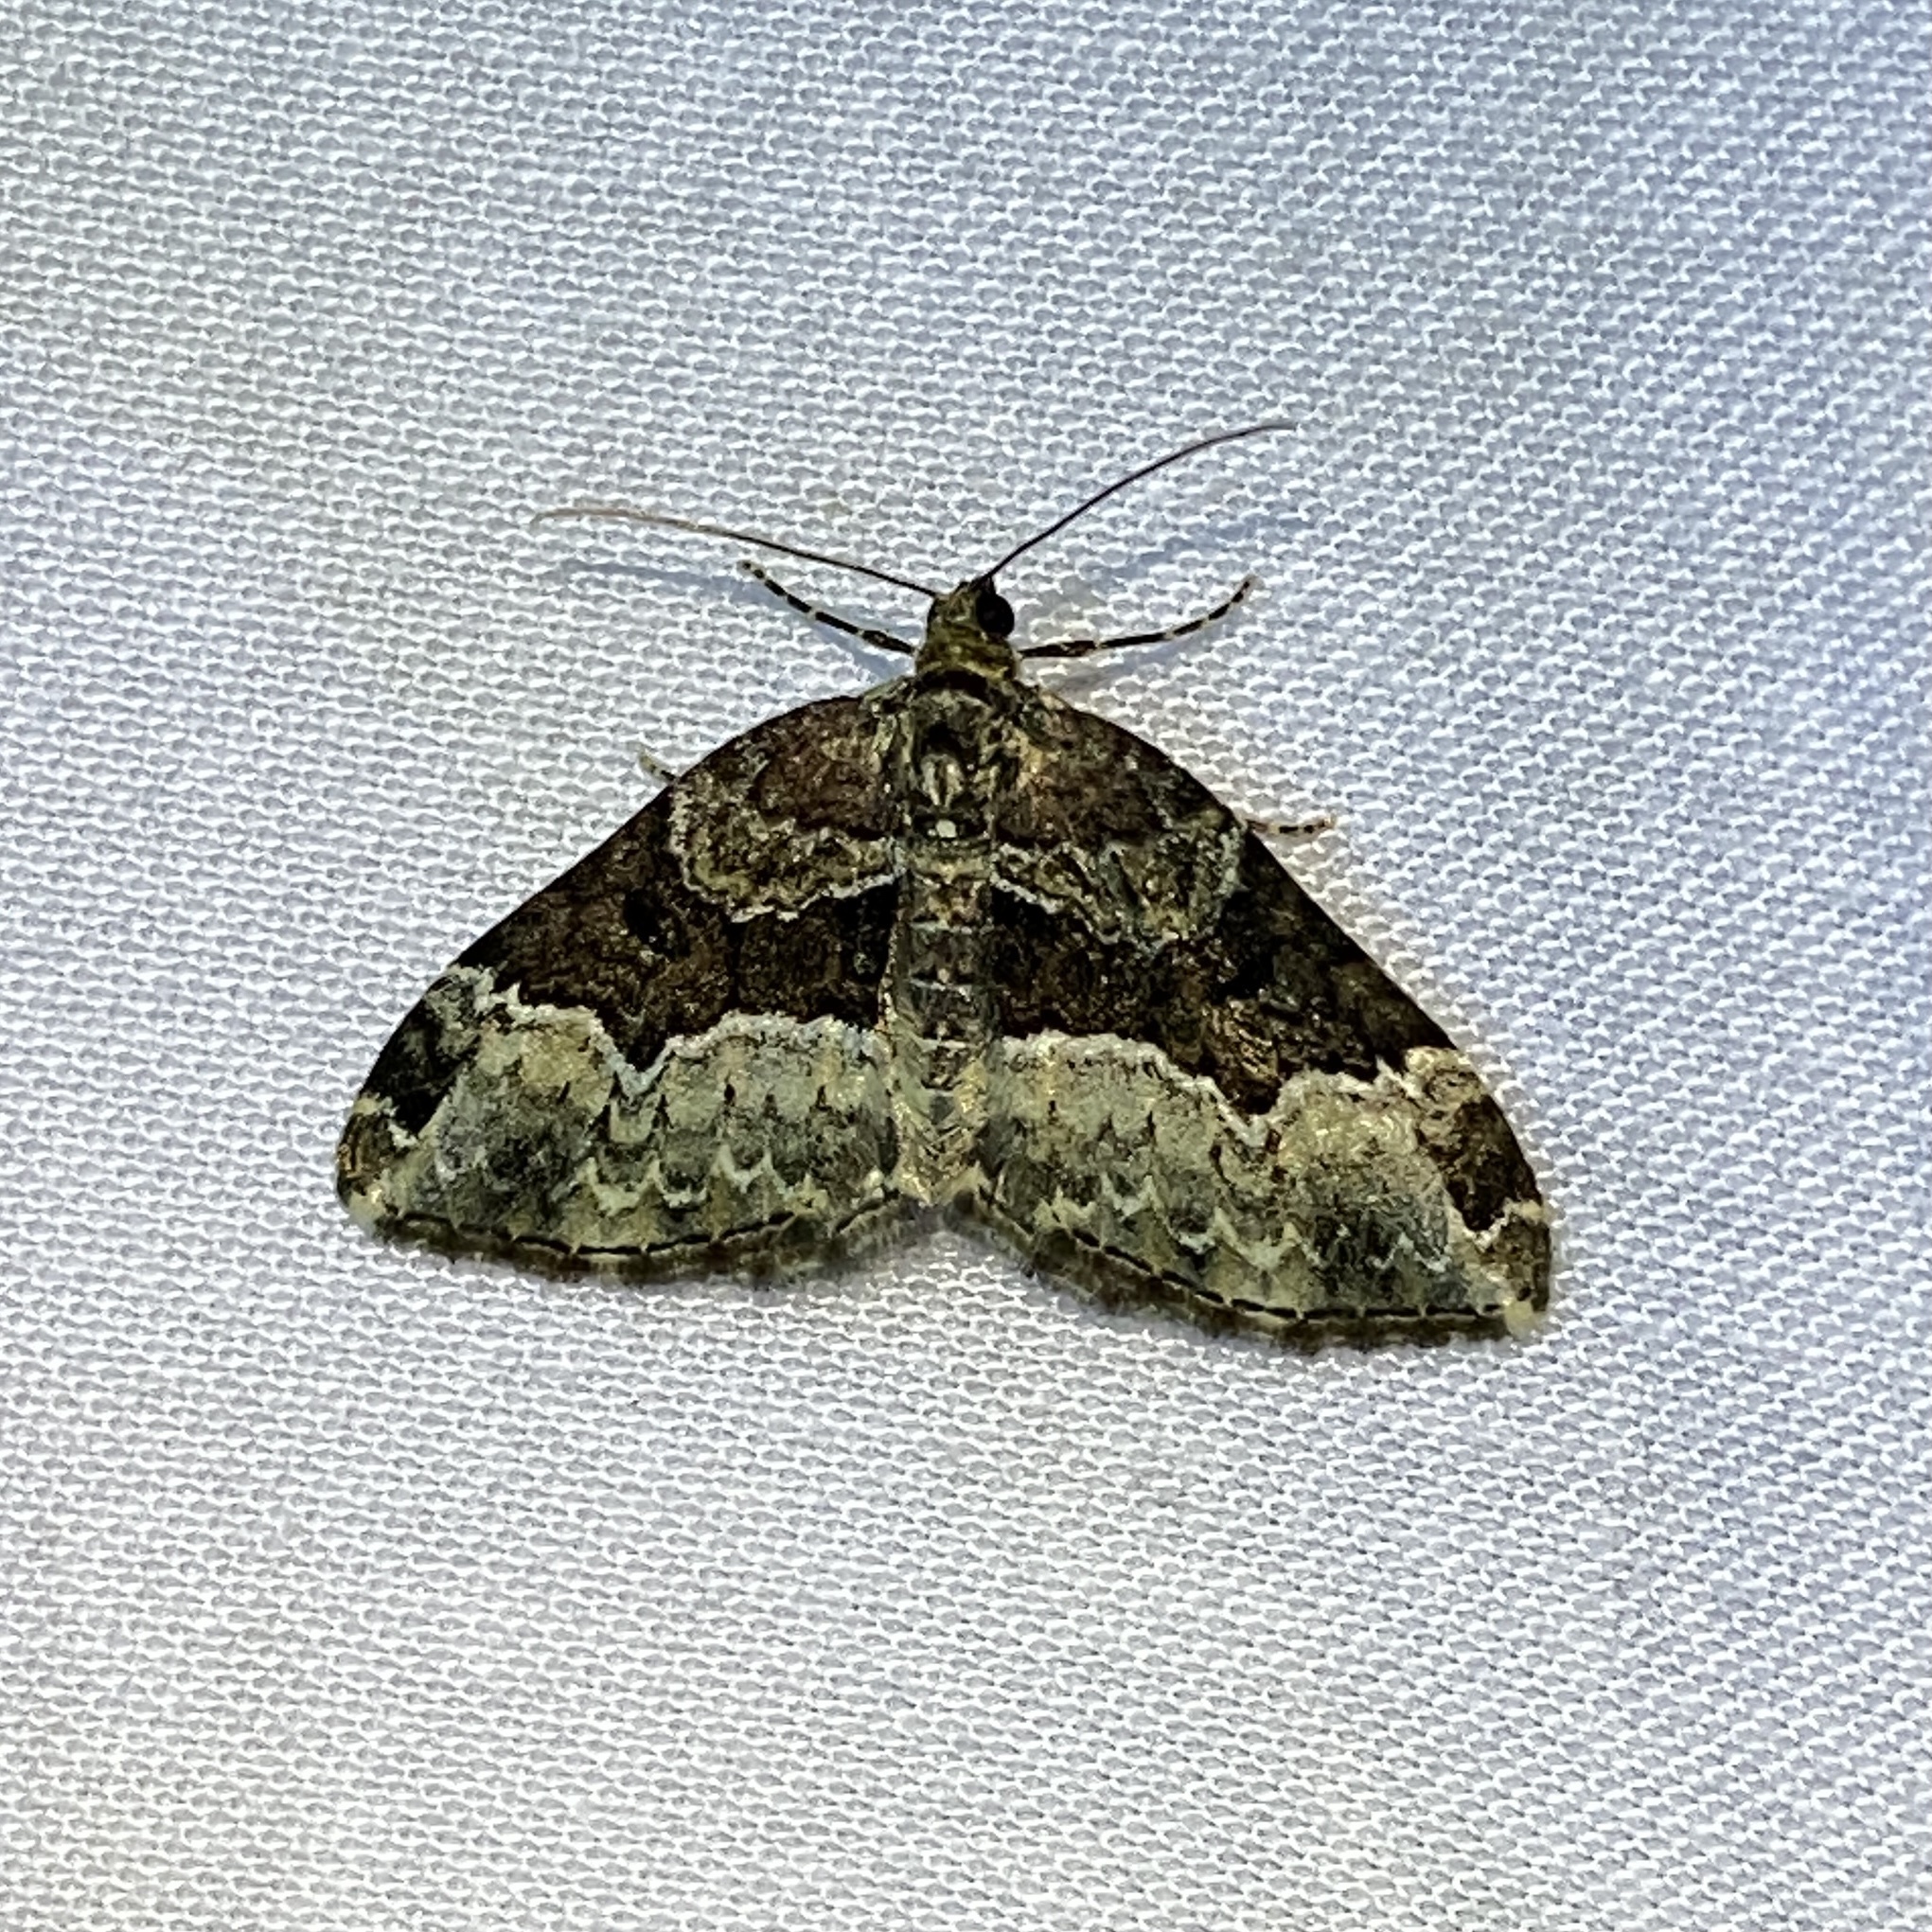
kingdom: Animalia
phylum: Arthropoda
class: Insecta
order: Lepidoptera
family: Geometridae
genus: Euphyia
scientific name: Euphyia intermediata
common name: Sharp-angled carpet
